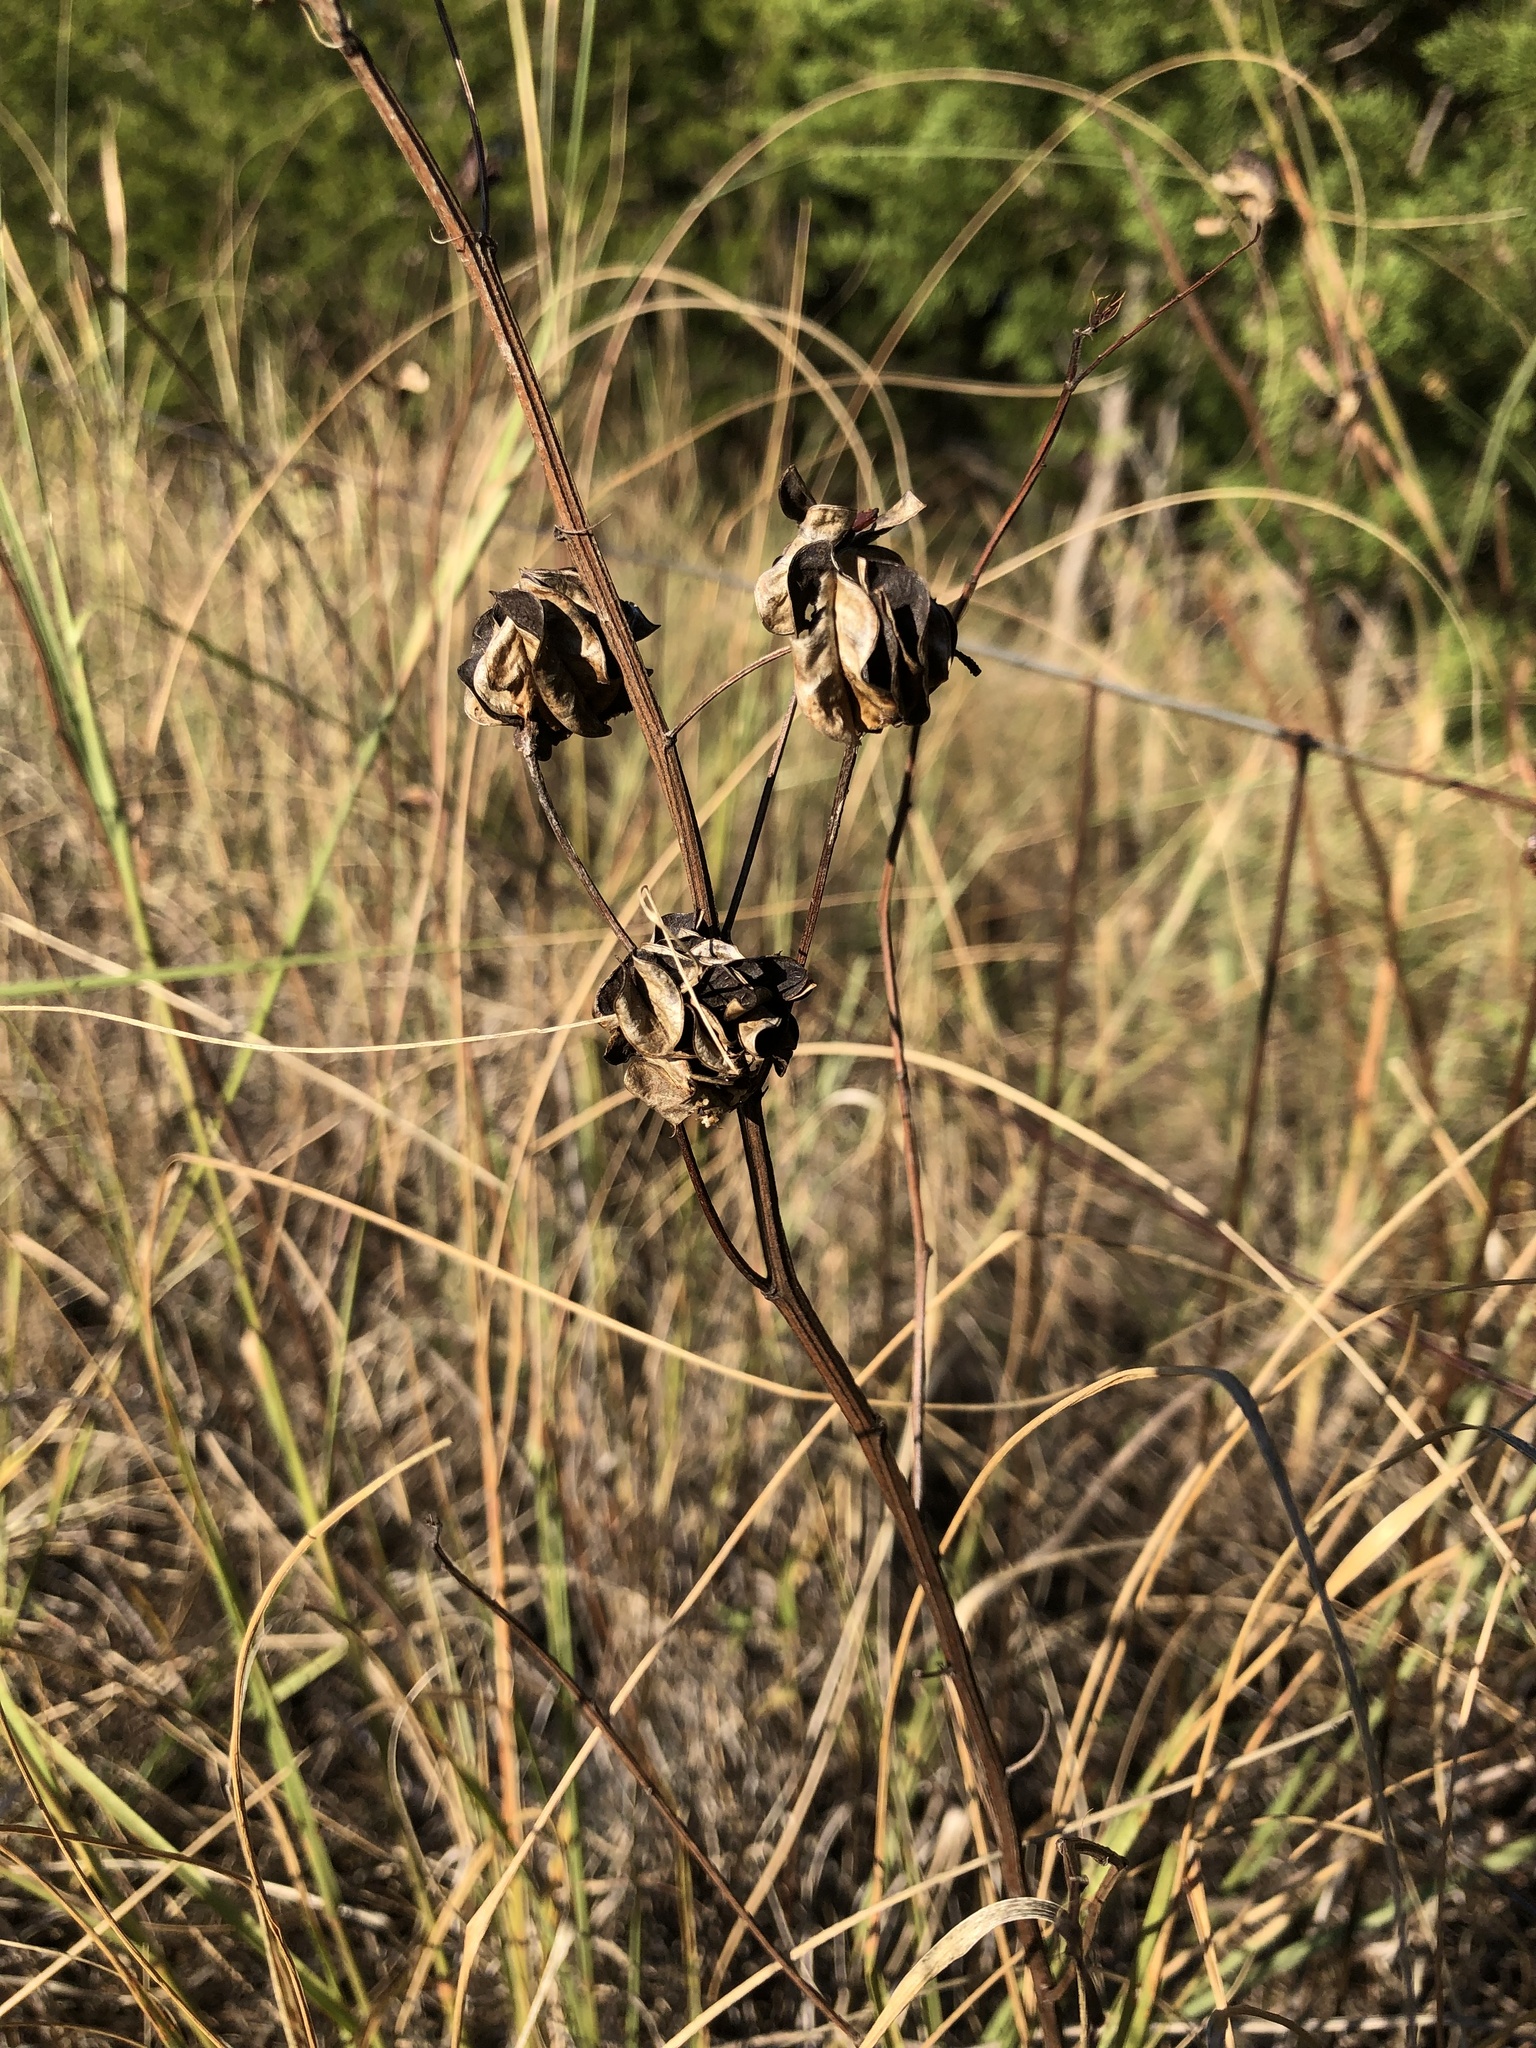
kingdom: Plantae
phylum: Tracheophyta
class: Magnoliopsida
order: Fabales
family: Fabaceae
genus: Desmanthus
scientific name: Desmanthus illinoensis
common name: Illinois bundle-flower
